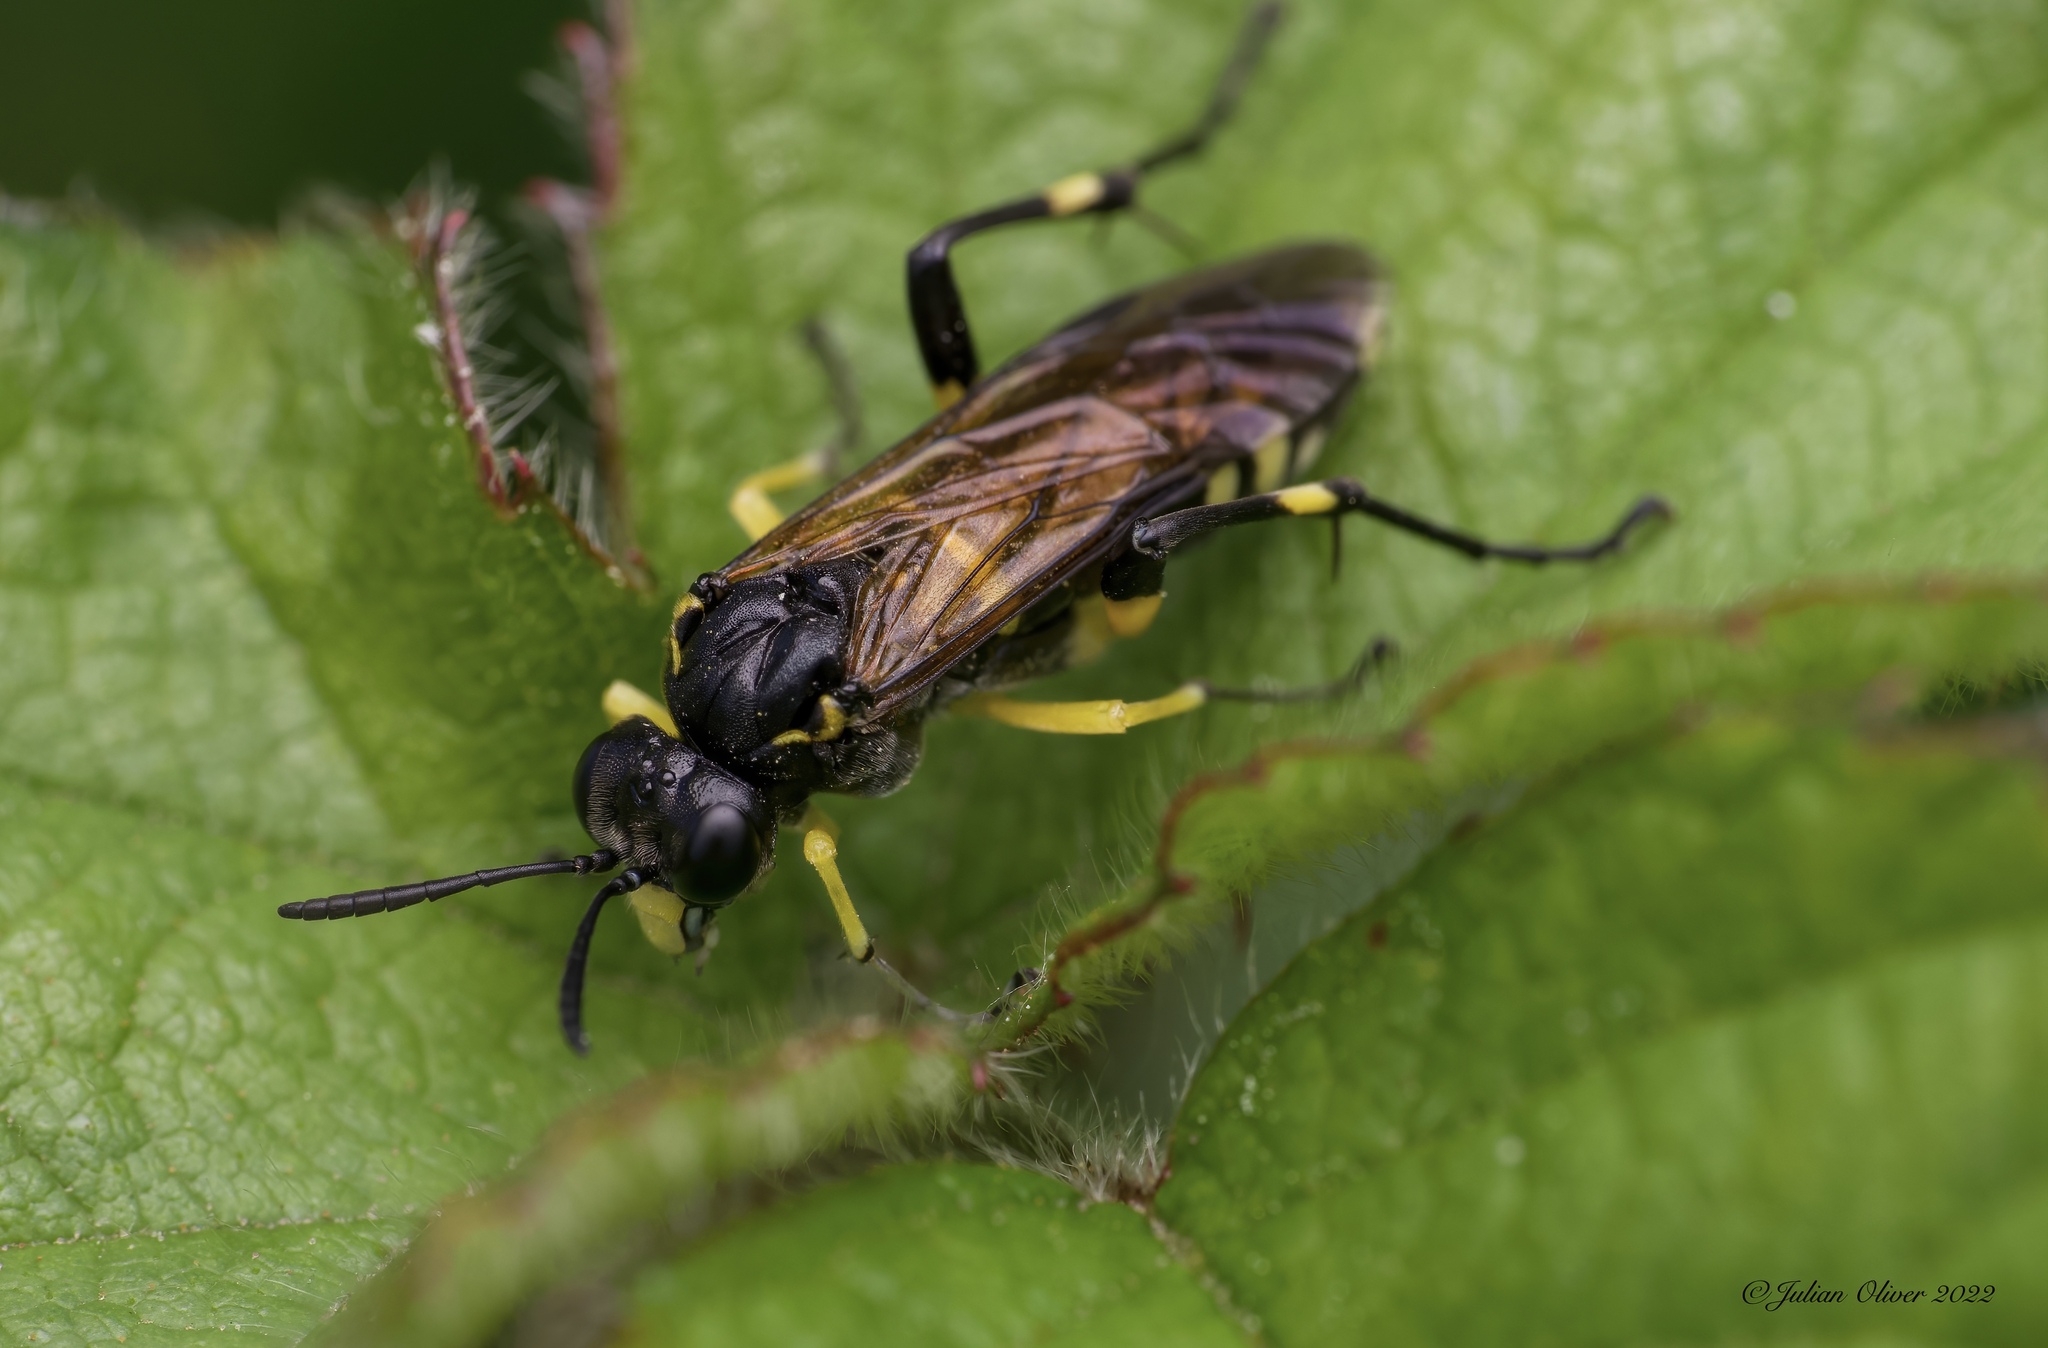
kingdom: Animalia
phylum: Arthropoda
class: Insecta
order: Hymenoptera
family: Tenthredinidae
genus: Macrophya
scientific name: Macrophya montana
